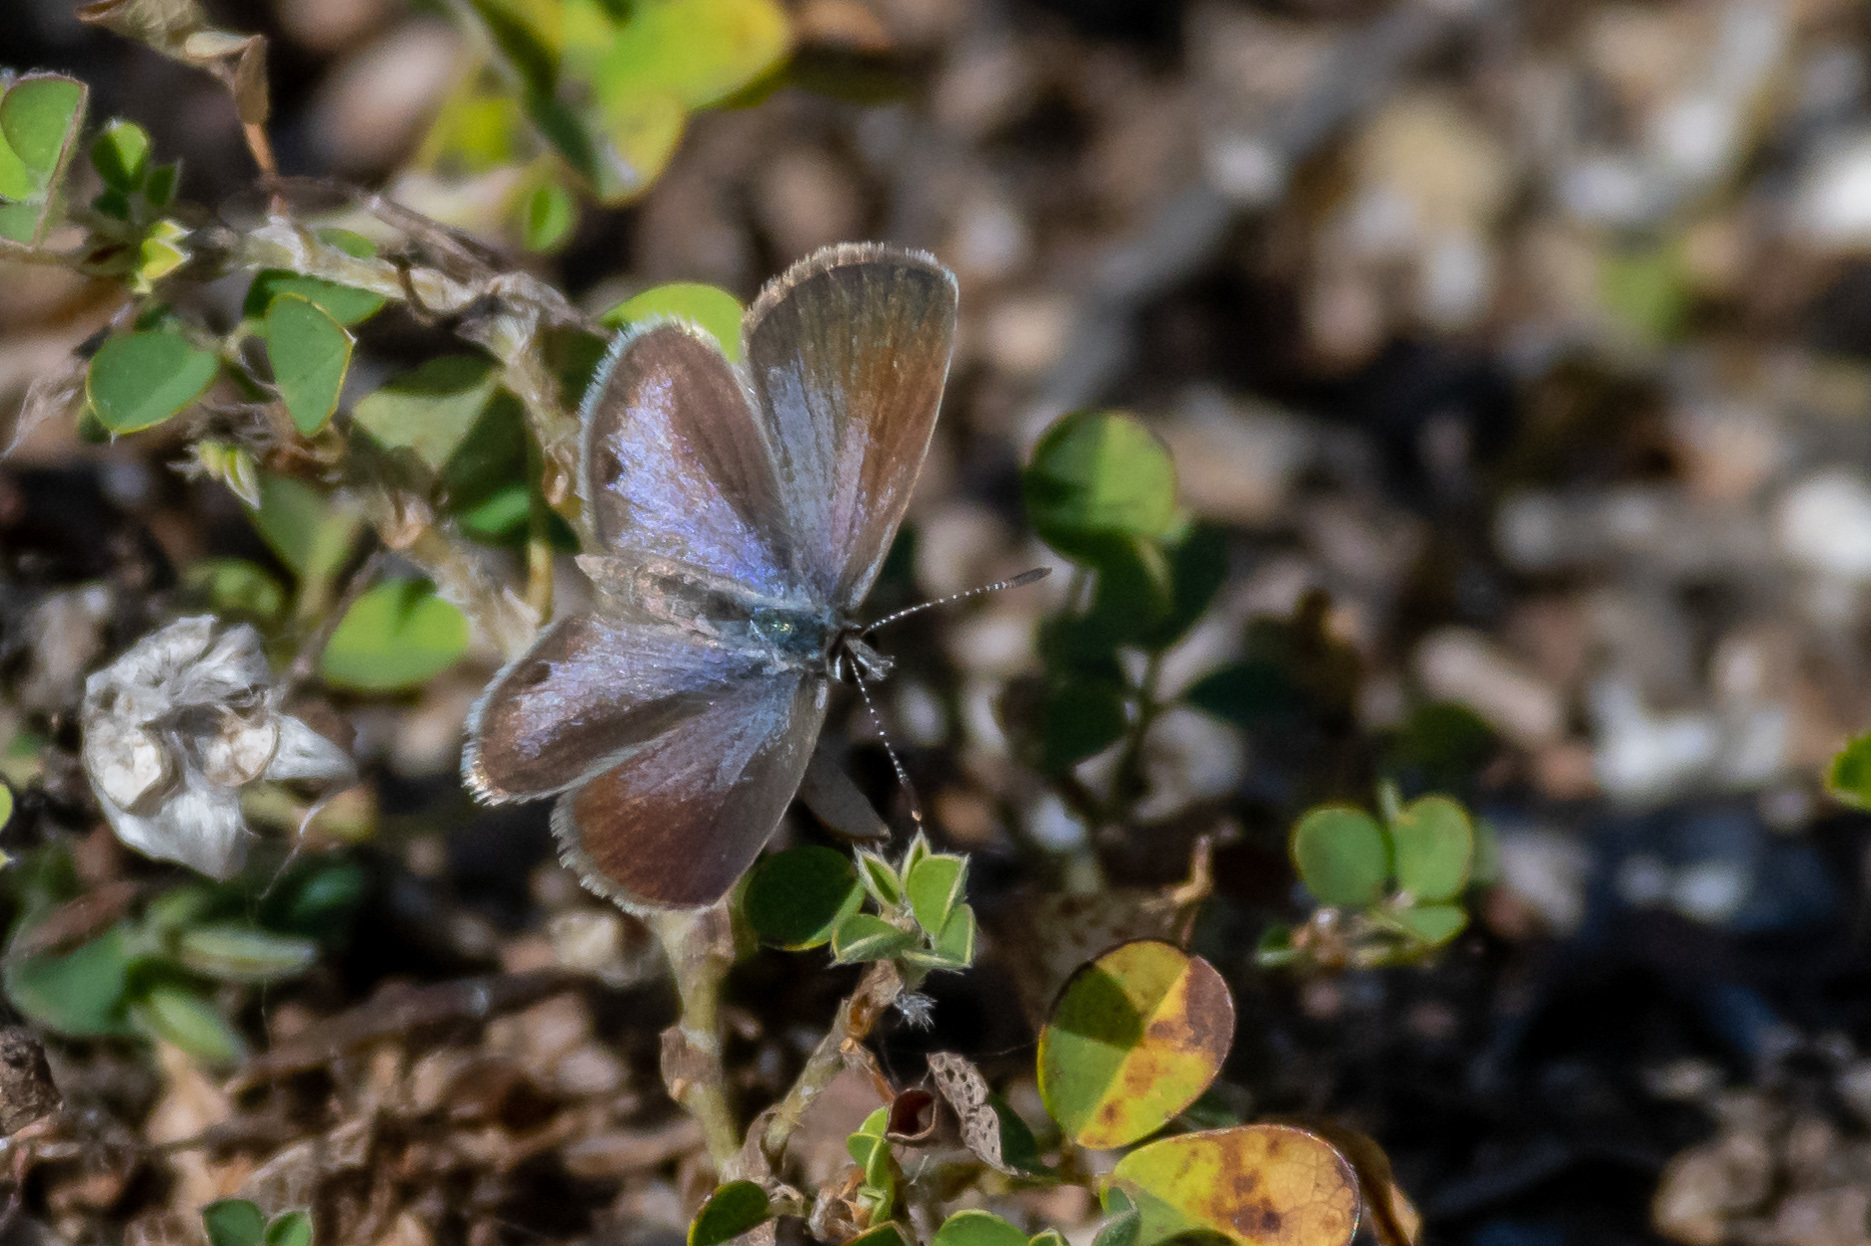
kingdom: Animalia
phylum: Arthropoda
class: Insecta
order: Lepidoptera
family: Lycaenidae
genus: Hemiargus
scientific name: Hemiargus ceraunus
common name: Ceraunus blue
